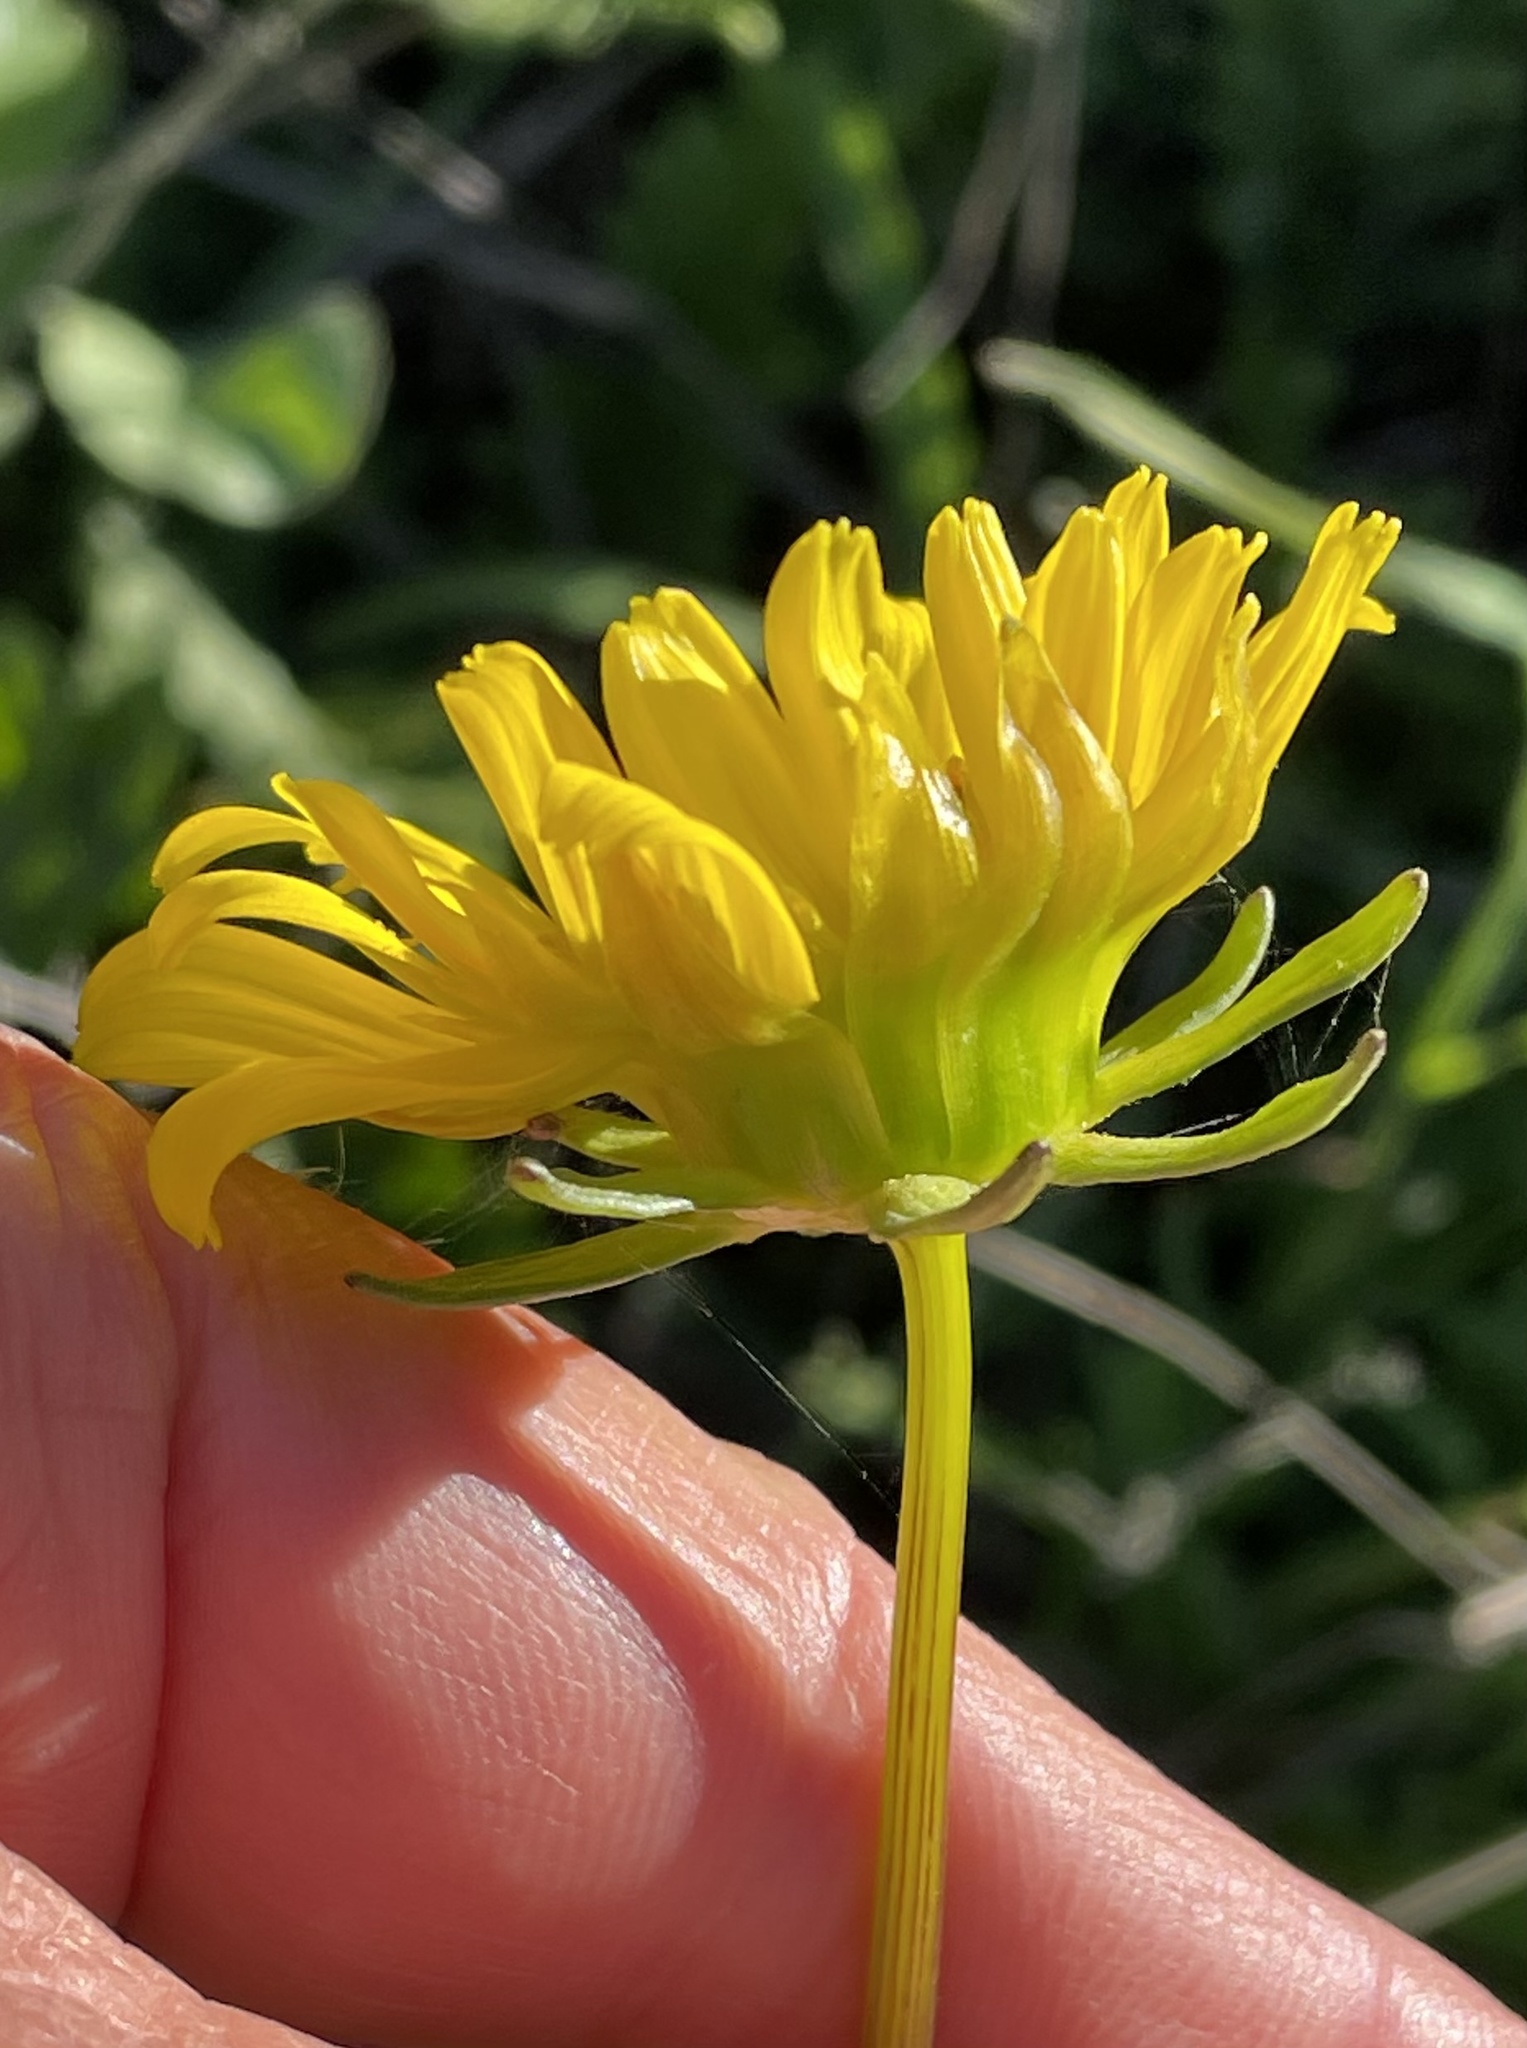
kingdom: Plantae
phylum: Tracheophyta
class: Magnoliopsida
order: Asterales
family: Asteraceae
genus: Coreopsis
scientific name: Coreopsis maritima
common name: Sea-dahlia
